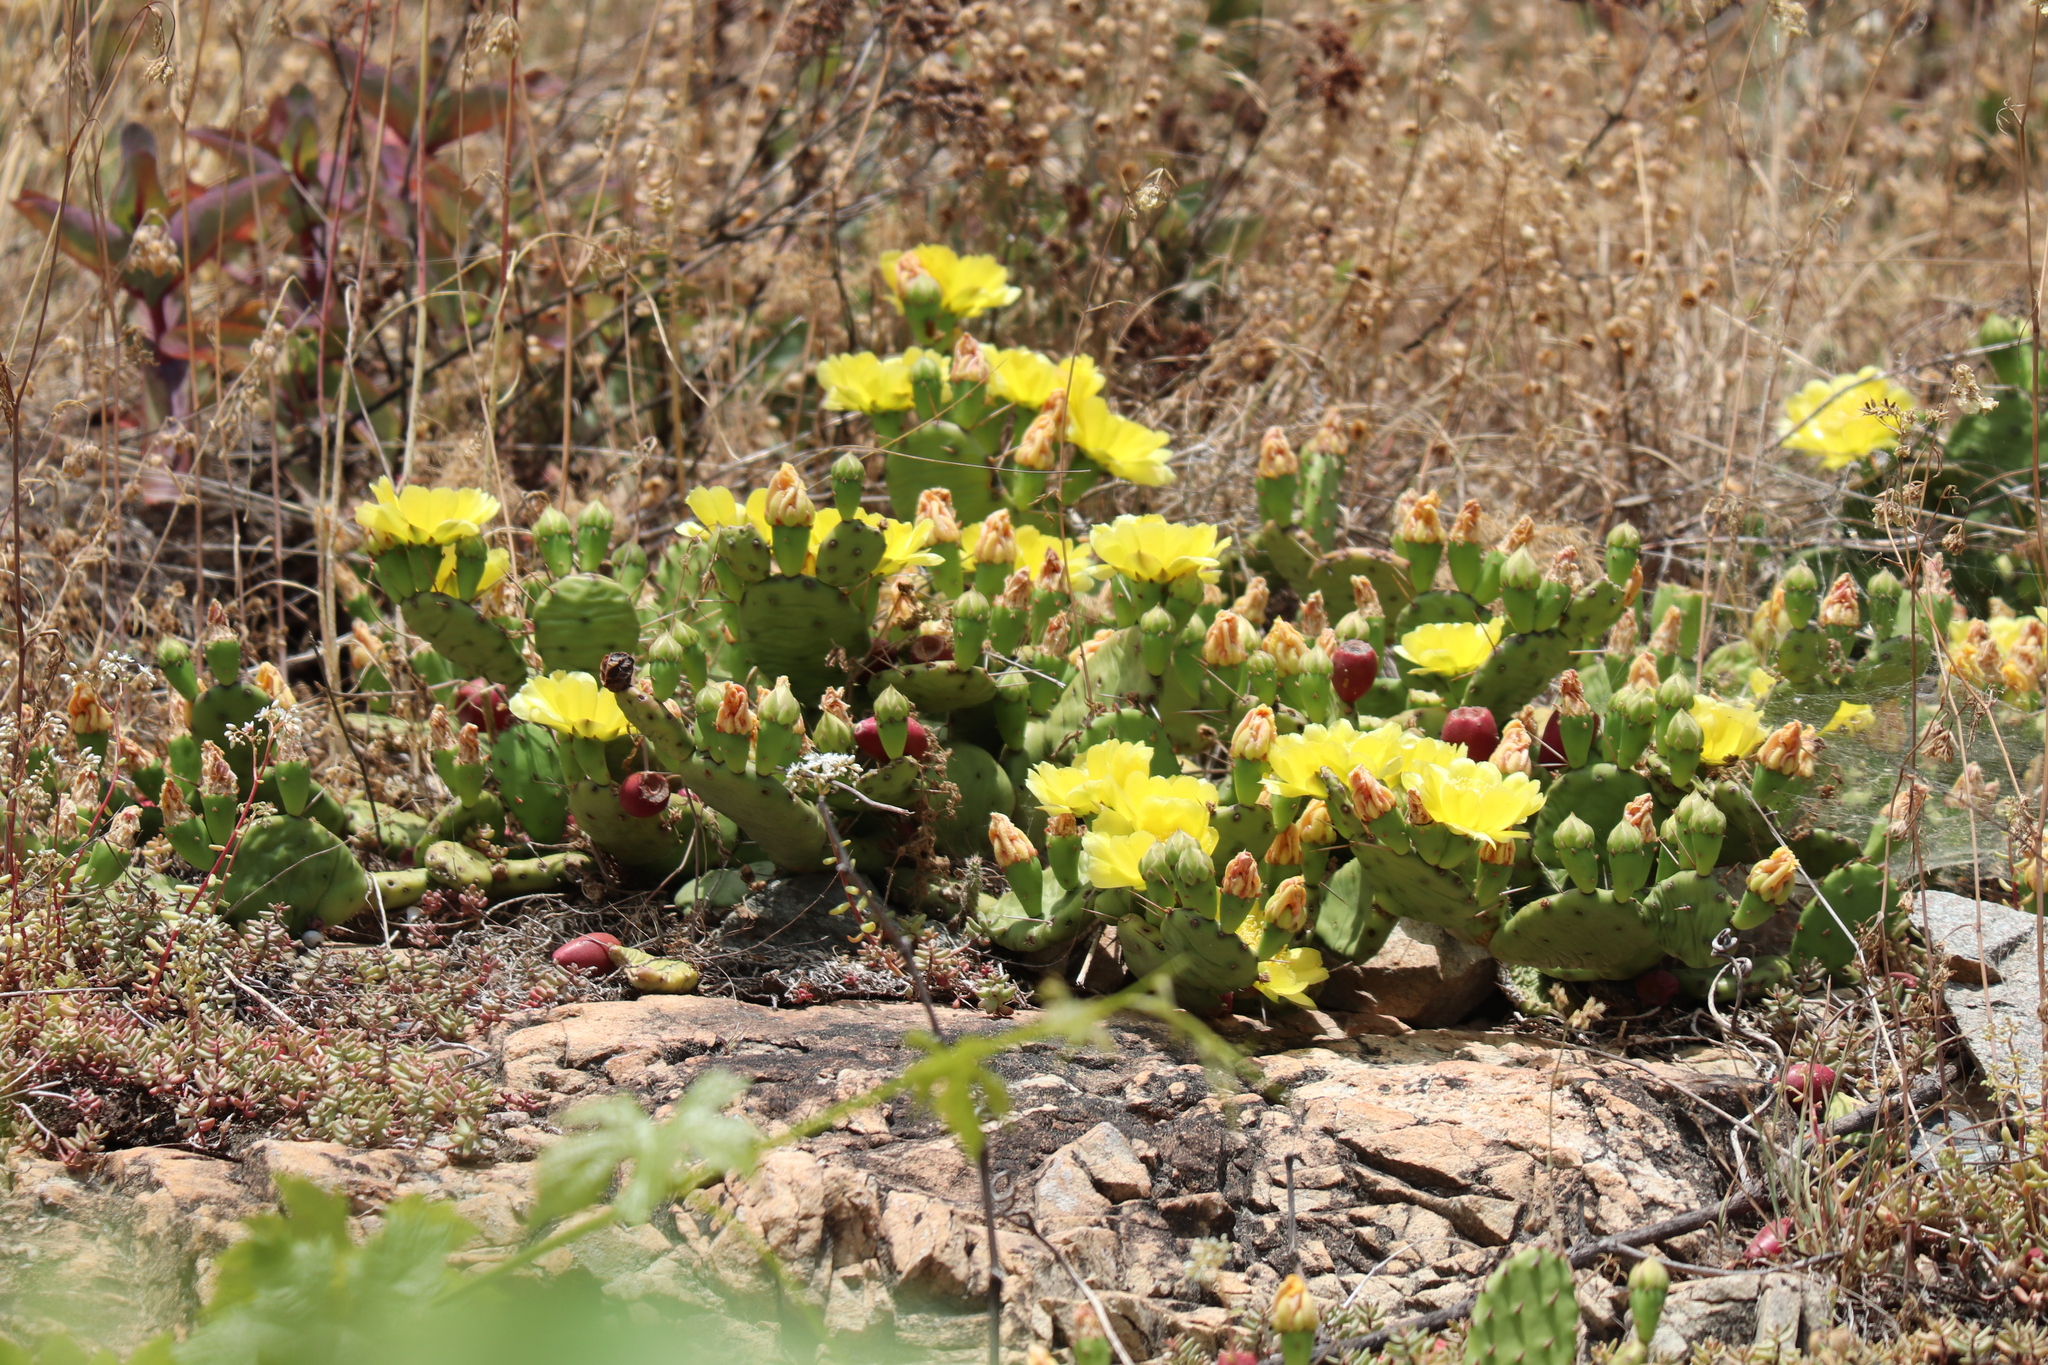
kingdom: Plantae
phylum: Tracheophyta
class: Magnoliopsida
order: Caryophyllales
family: Cactaceae
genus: Opuntia
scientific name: Opuntia humifusa
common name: Eastern prickly-pear
